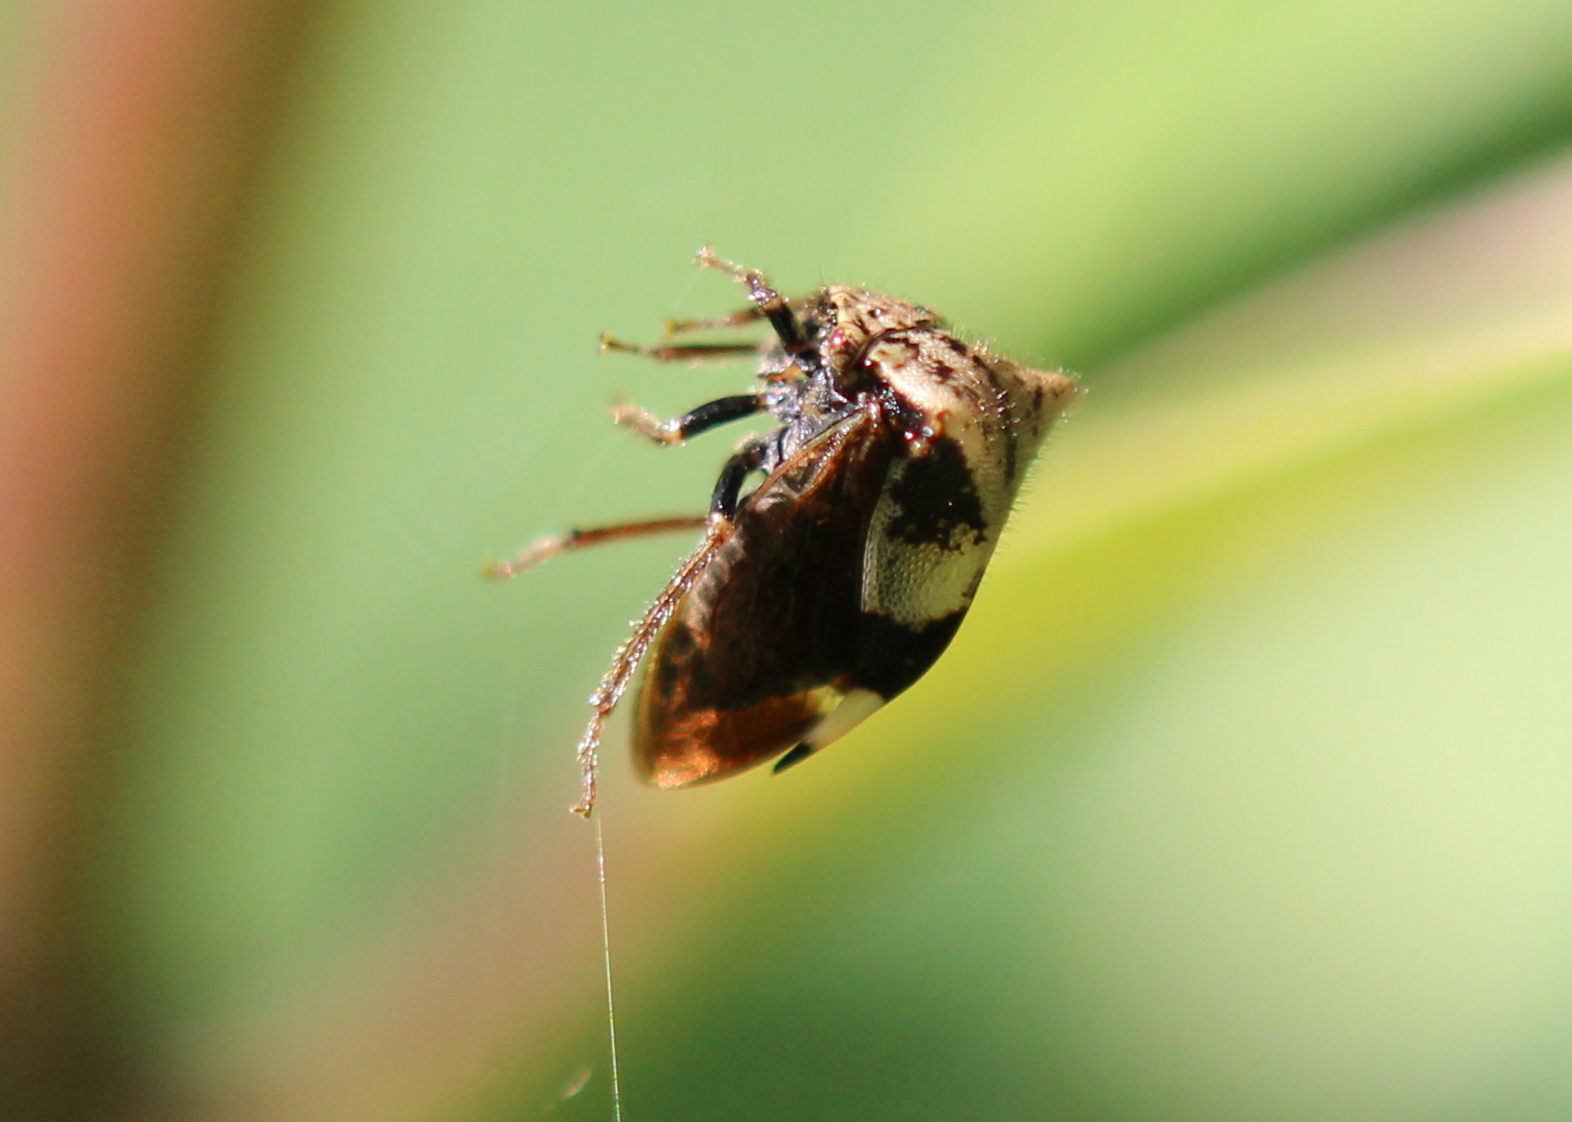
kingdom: Animalia
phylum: Arthropoda
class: Insecta
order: Hemiptera
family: Membracidae
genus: Stictocephala
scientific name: Stictocephala diceros
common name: Two-horned treehopper
